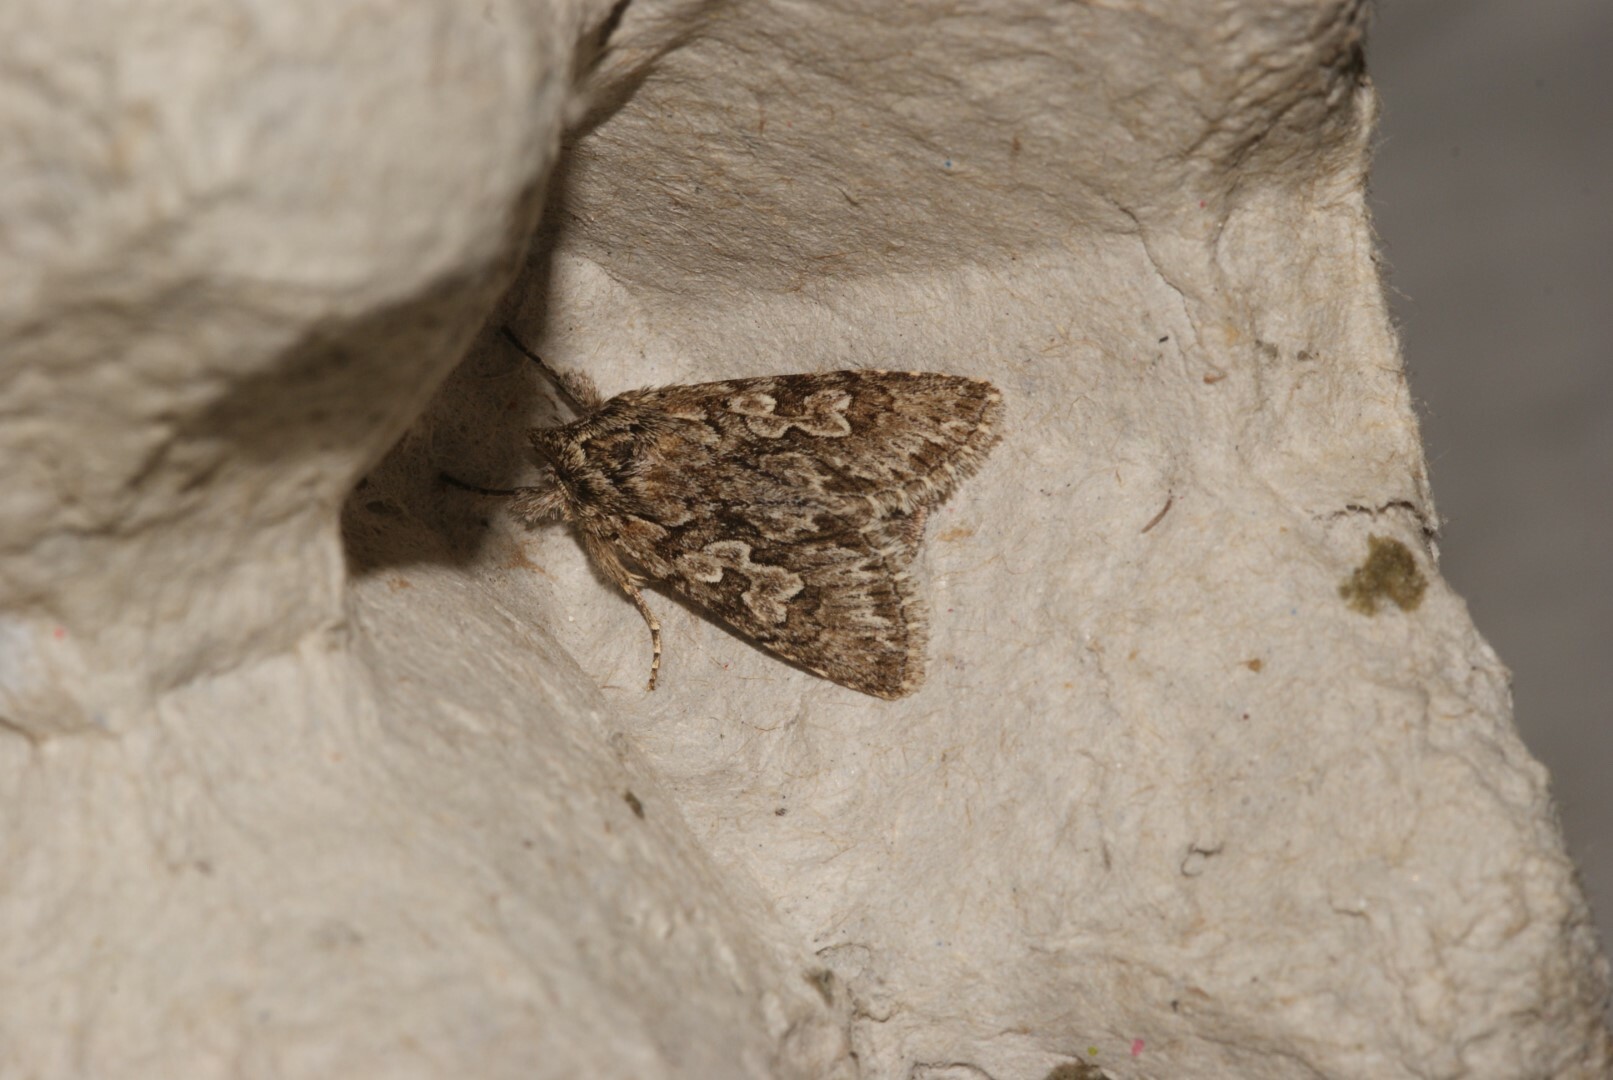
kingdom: Animalia
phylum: Arthropoda
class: Insecta
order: Lepidoptera
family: Noctuidae
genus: Xylocampa
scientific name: Xylocampa areola
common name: Early grey
